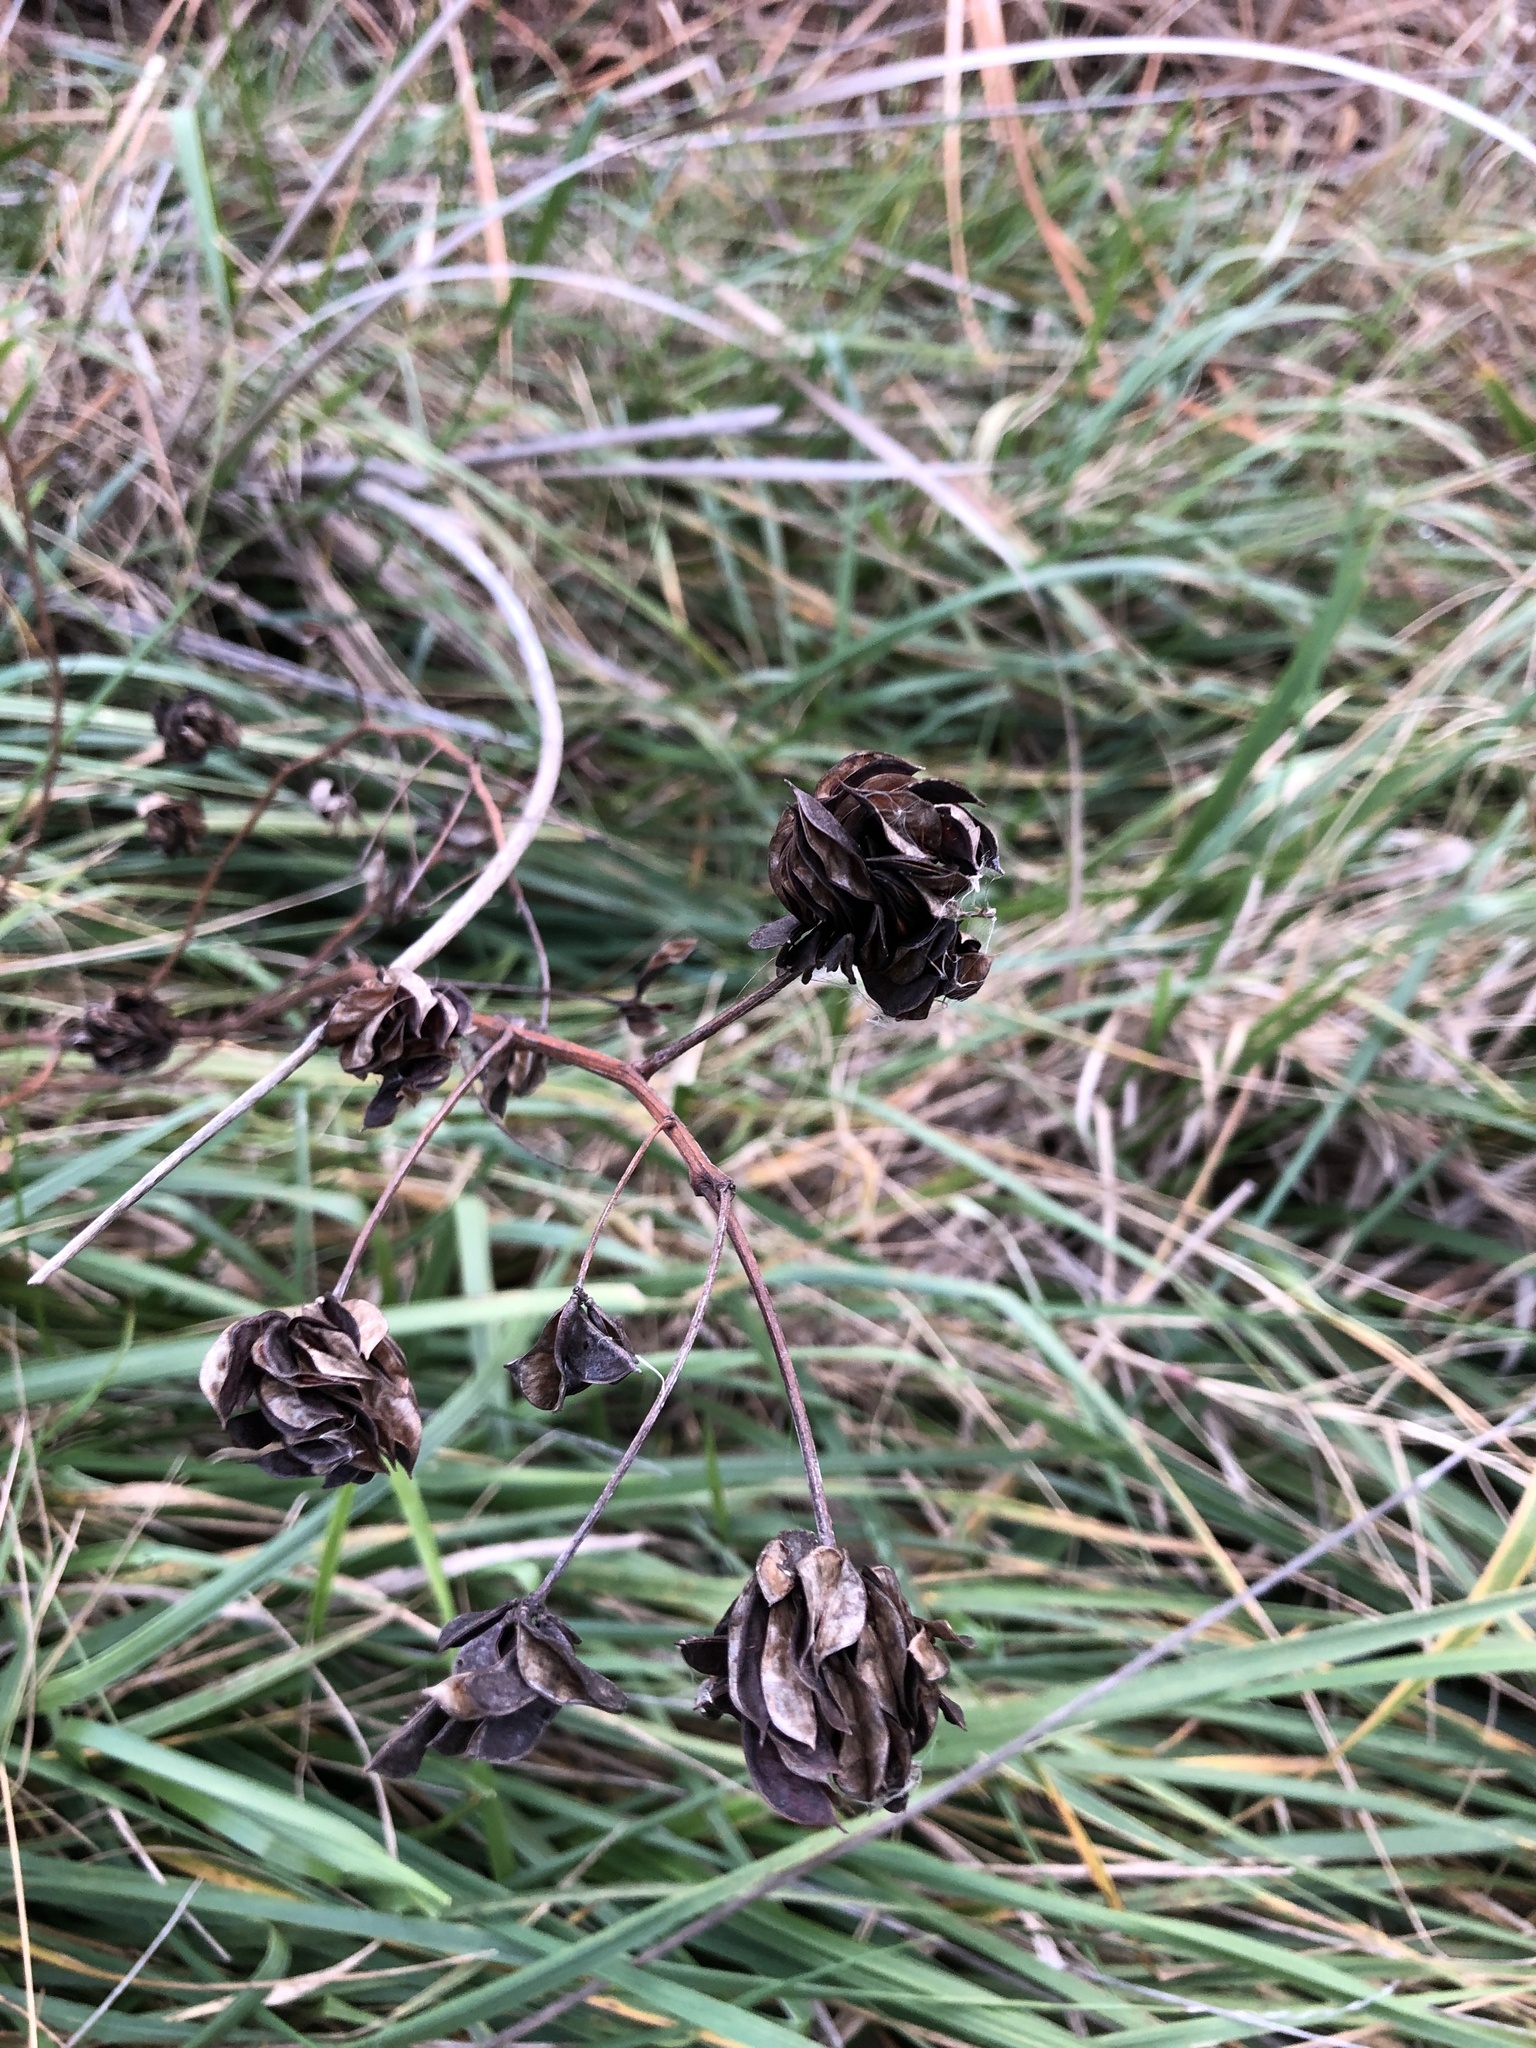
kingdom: Plantae
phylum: Tracheophyta
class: Magnoliopsida
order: Fabales
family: Fabaceae
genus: Desmanthus
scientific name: Desmanthus illinoensis
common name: Illinois bundle-flower
